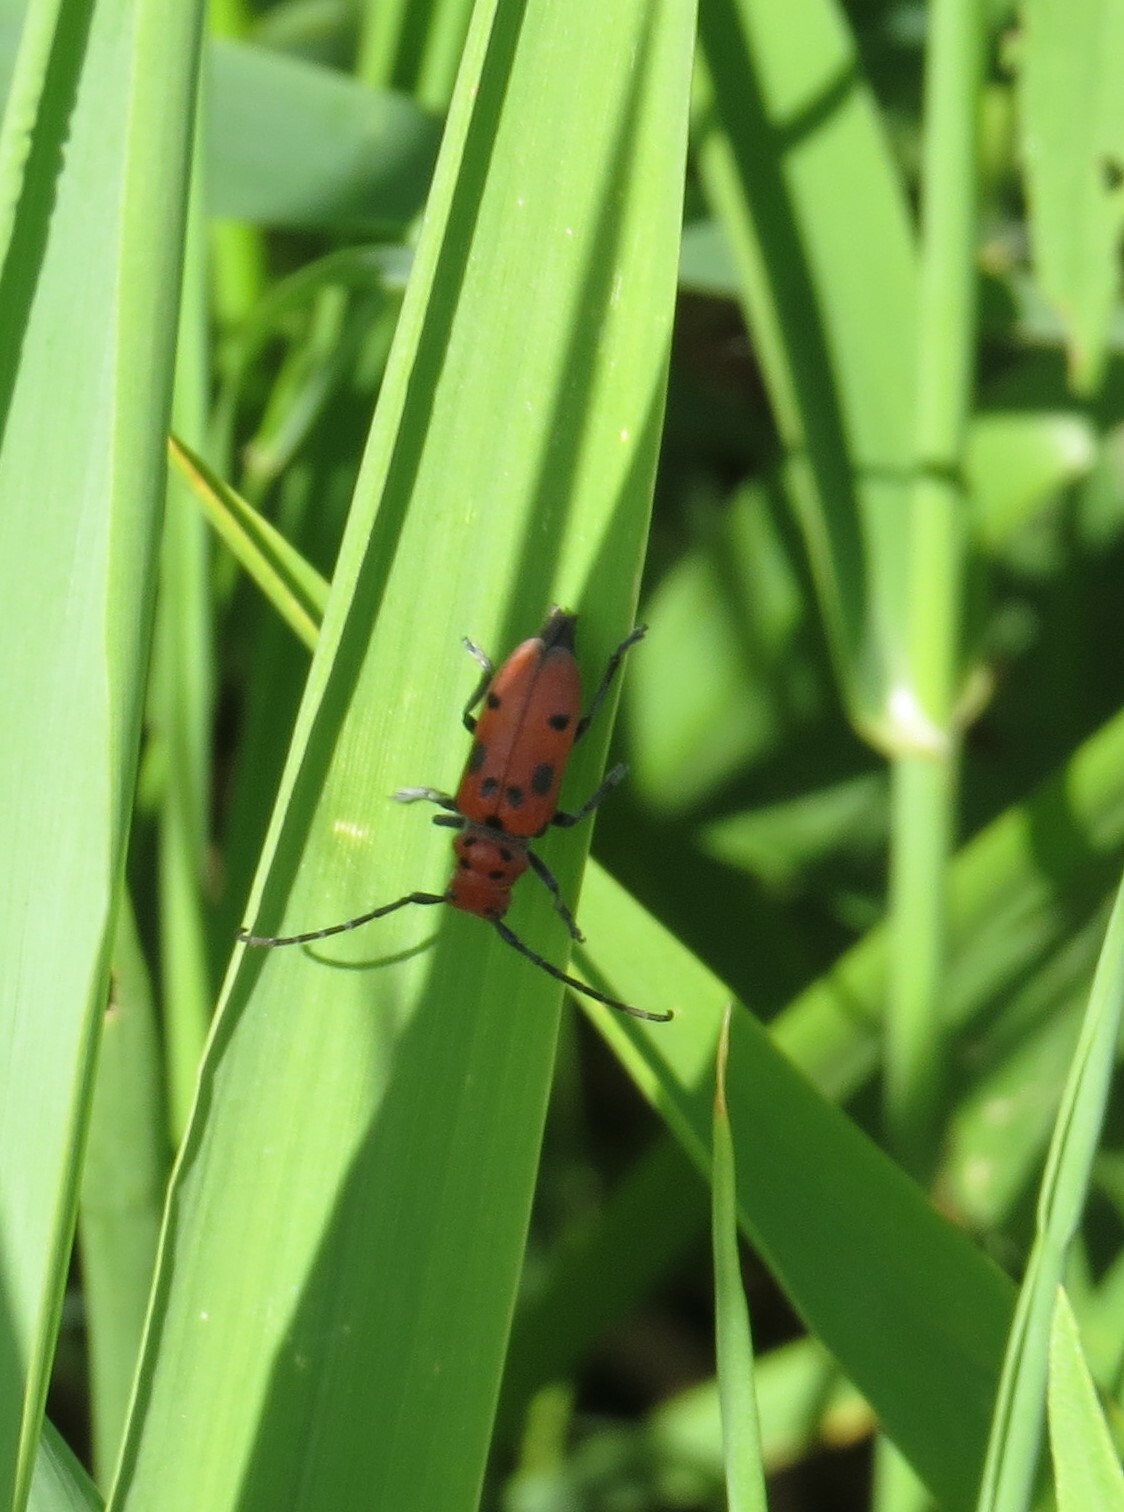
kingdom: Animalia
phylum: Arthropoda
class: Insecta
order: Coleoptera
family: Cerambycidae
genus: Tetraopes
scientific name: Tetraopes tetrophthalmus
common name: Red milkweed beetle
